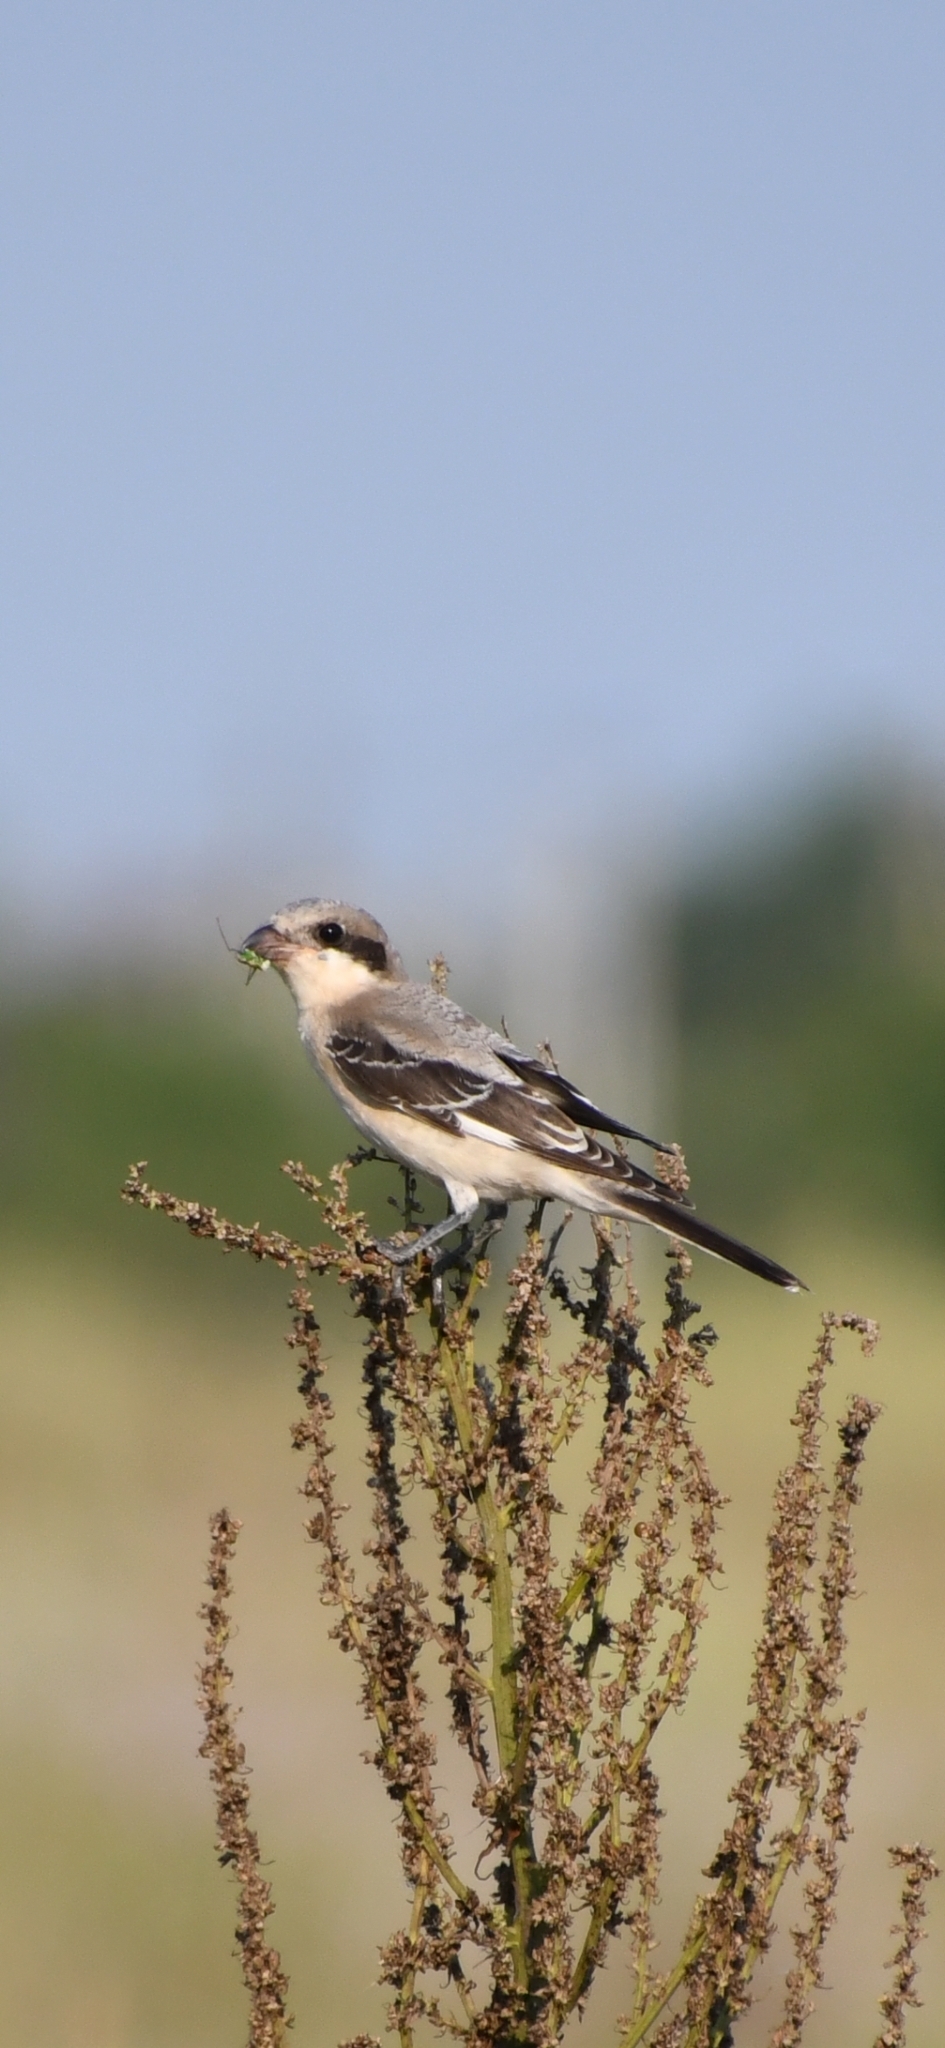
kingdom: Animalia
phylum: Chordata
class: Aves
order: Passeriformes
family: Laniidae
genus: Lanius
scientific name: Lanius minor
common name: Lesser grey shrike
